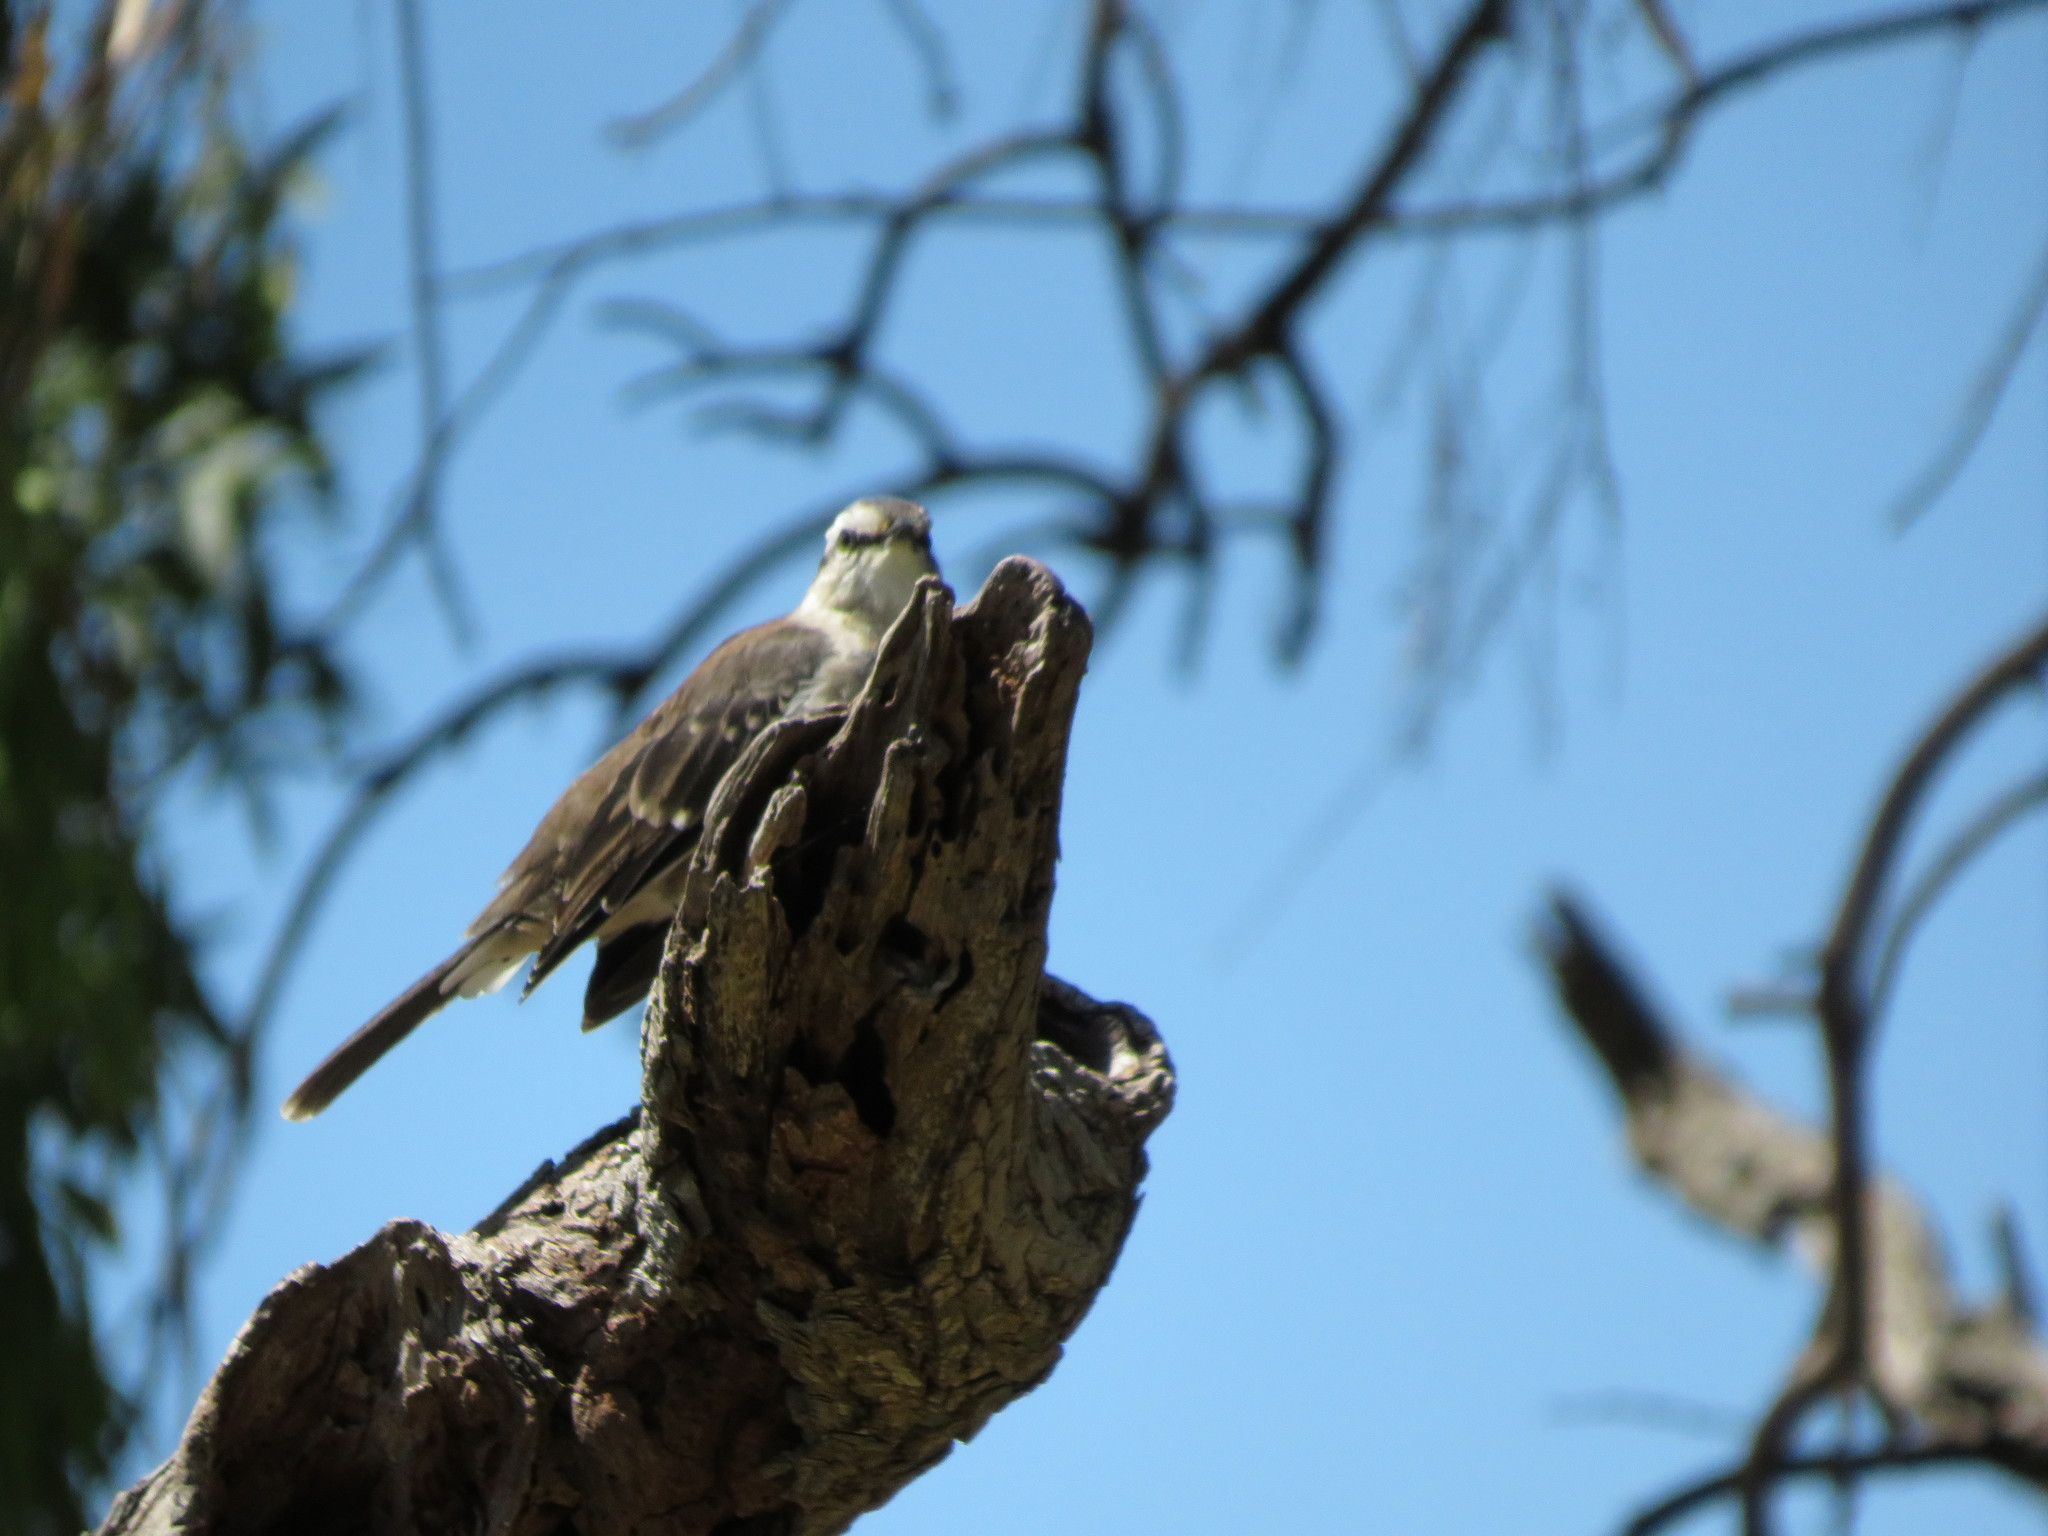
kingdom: Animalia
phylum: Chordata
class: Aves
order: Passeriformes
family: Mimidae
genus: Mimus
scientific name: Mimus saturninus
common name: Chalk-browed mockingbird
